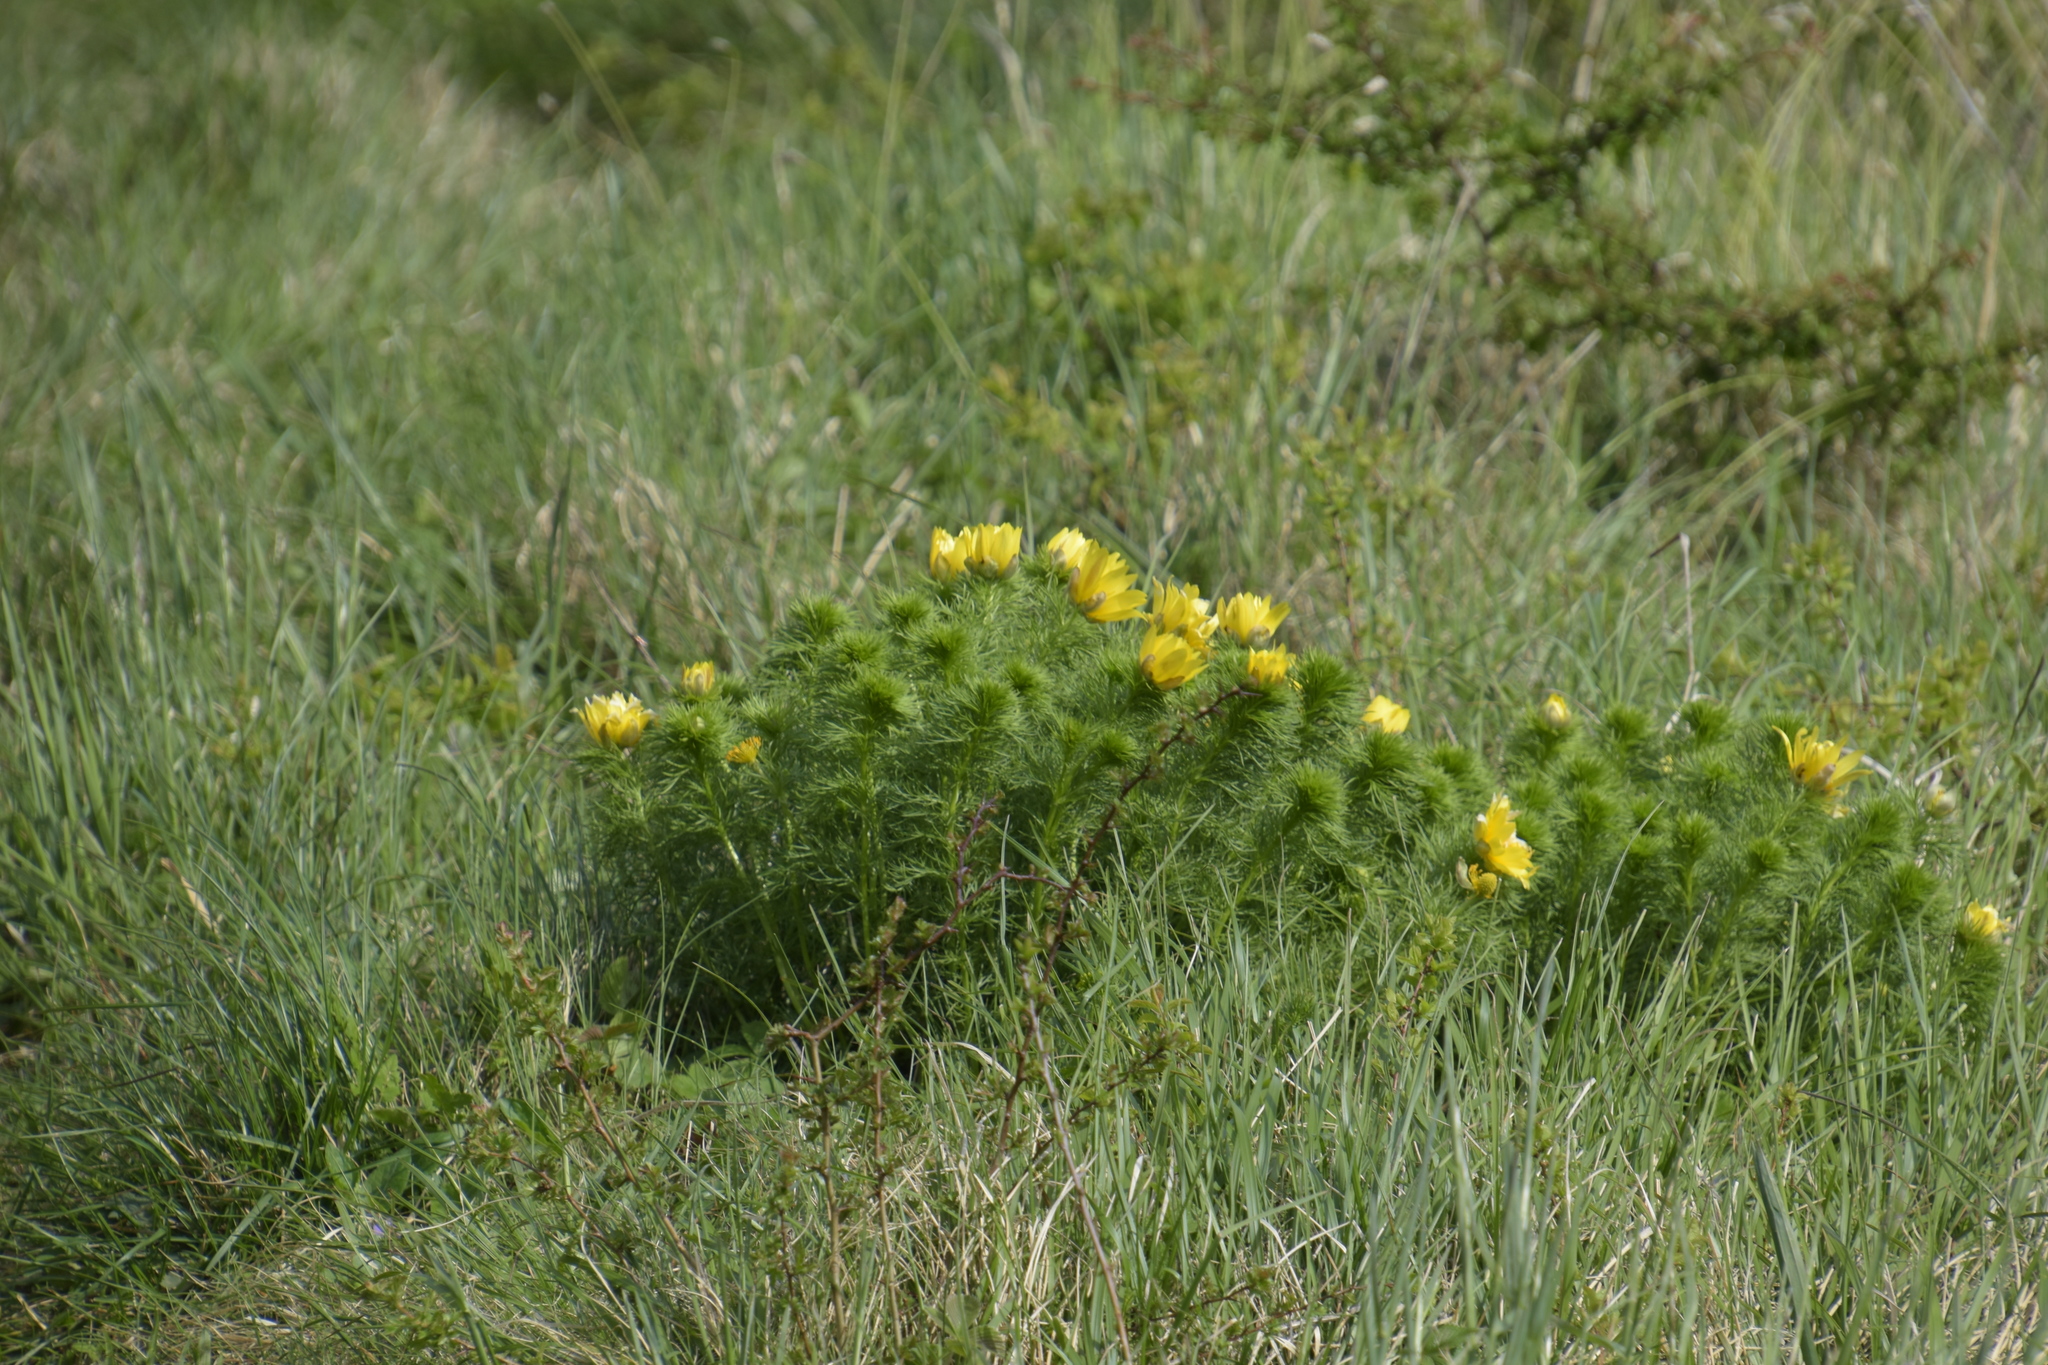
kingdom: Plantae
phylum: Tracheophyta
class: Magnoliopsida
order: Ranunculales
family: Ranunculaceae
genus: Adonis
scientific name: Adonis vernalis
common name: Yellow pheasants-eye
